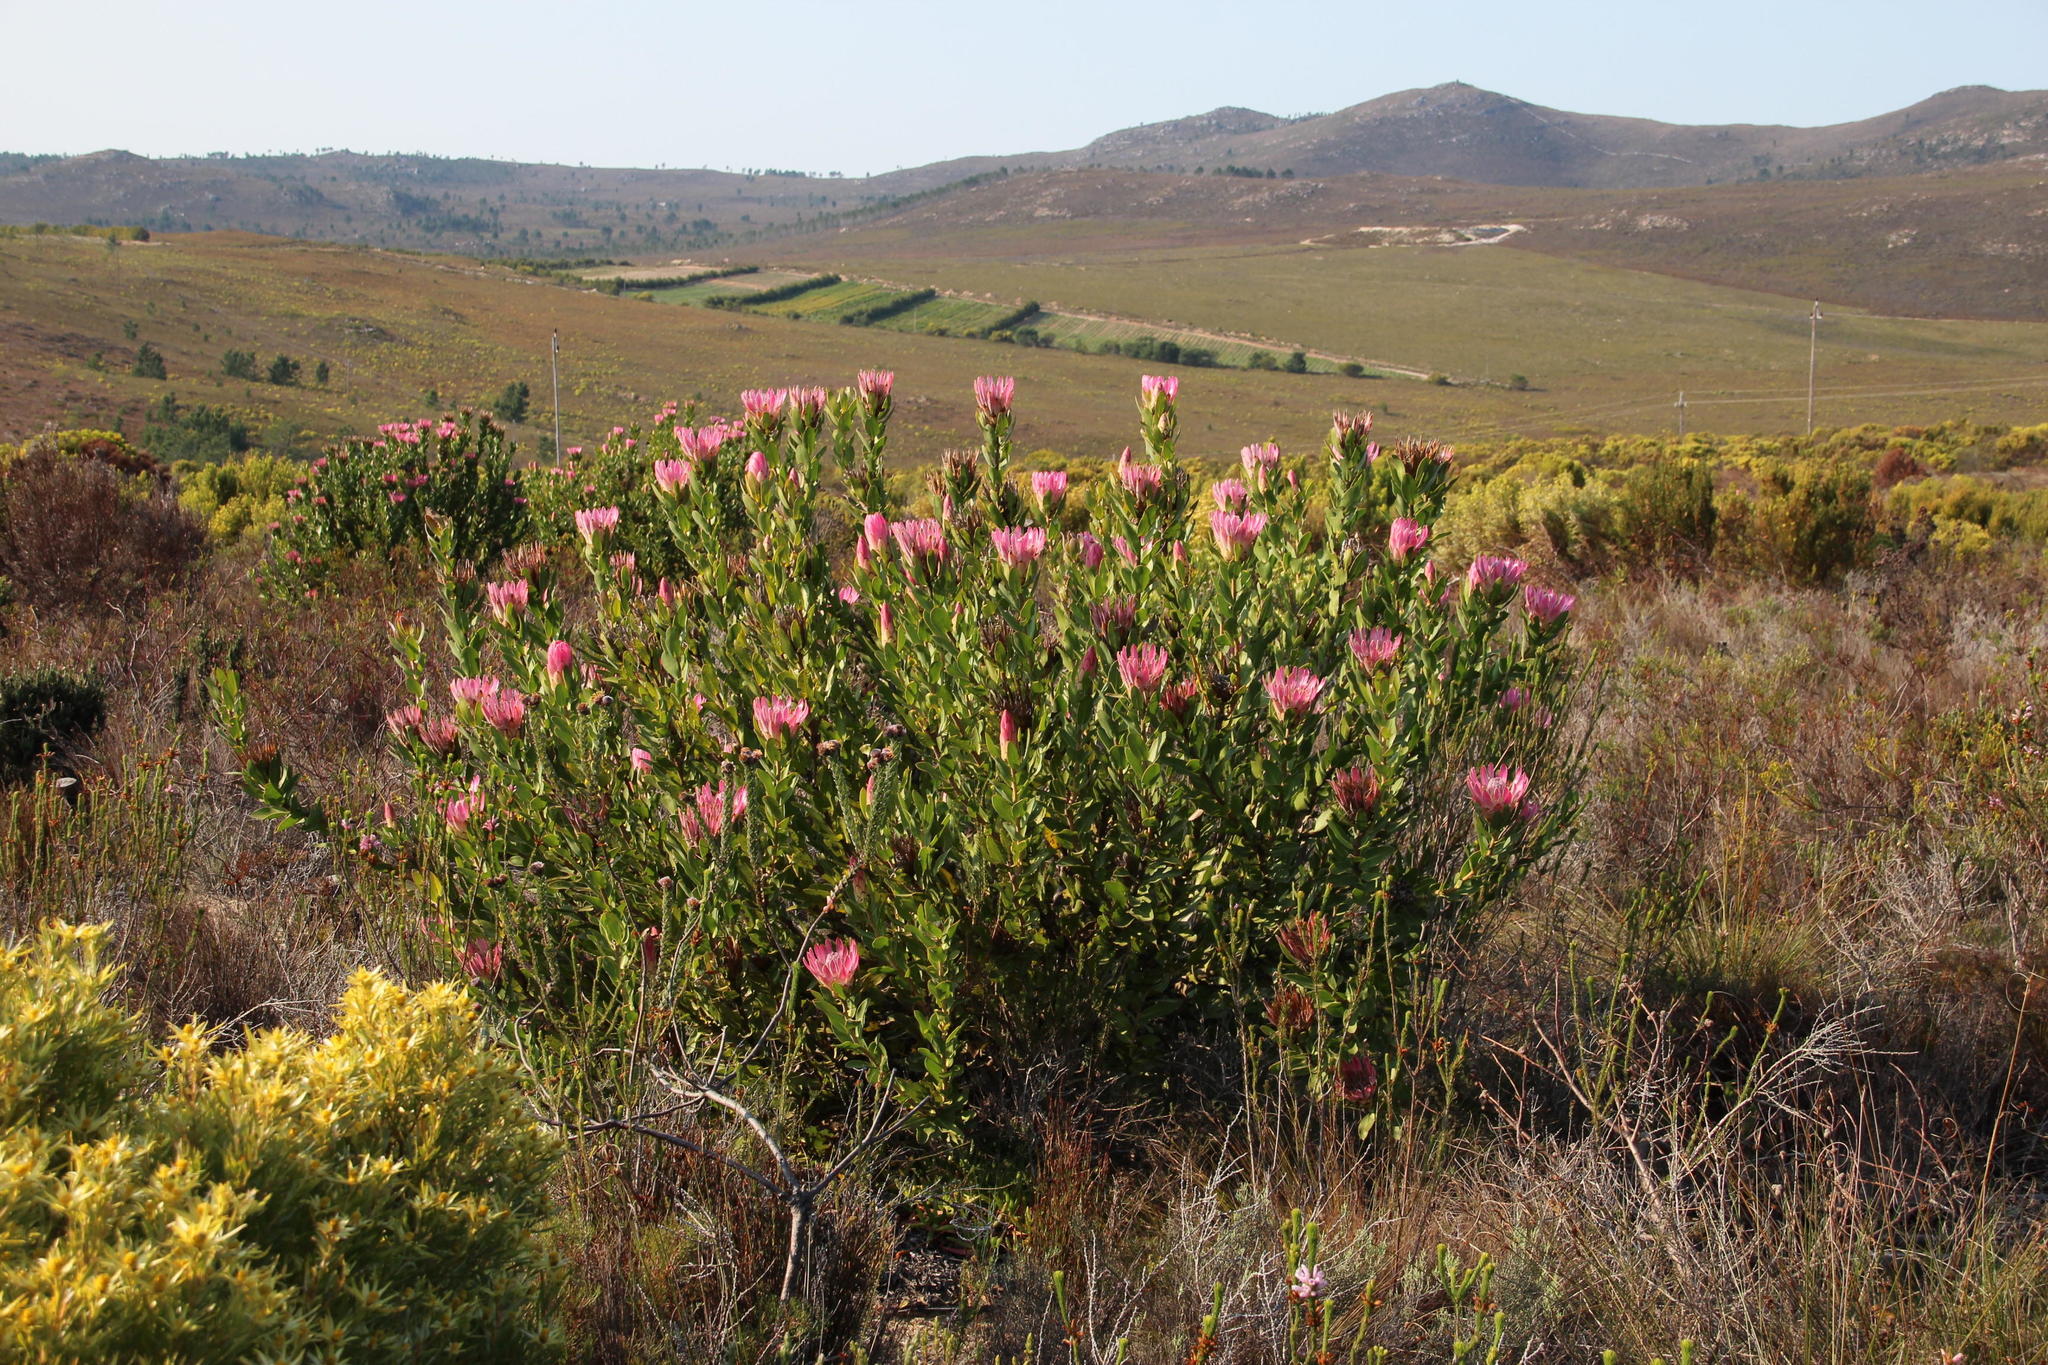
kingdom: Plantae
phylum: Tracheophyta
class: Magnoliopsida
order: Proteales
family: Proteaceae
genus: Protea
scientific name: Protea compacta
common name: Bot river protea
